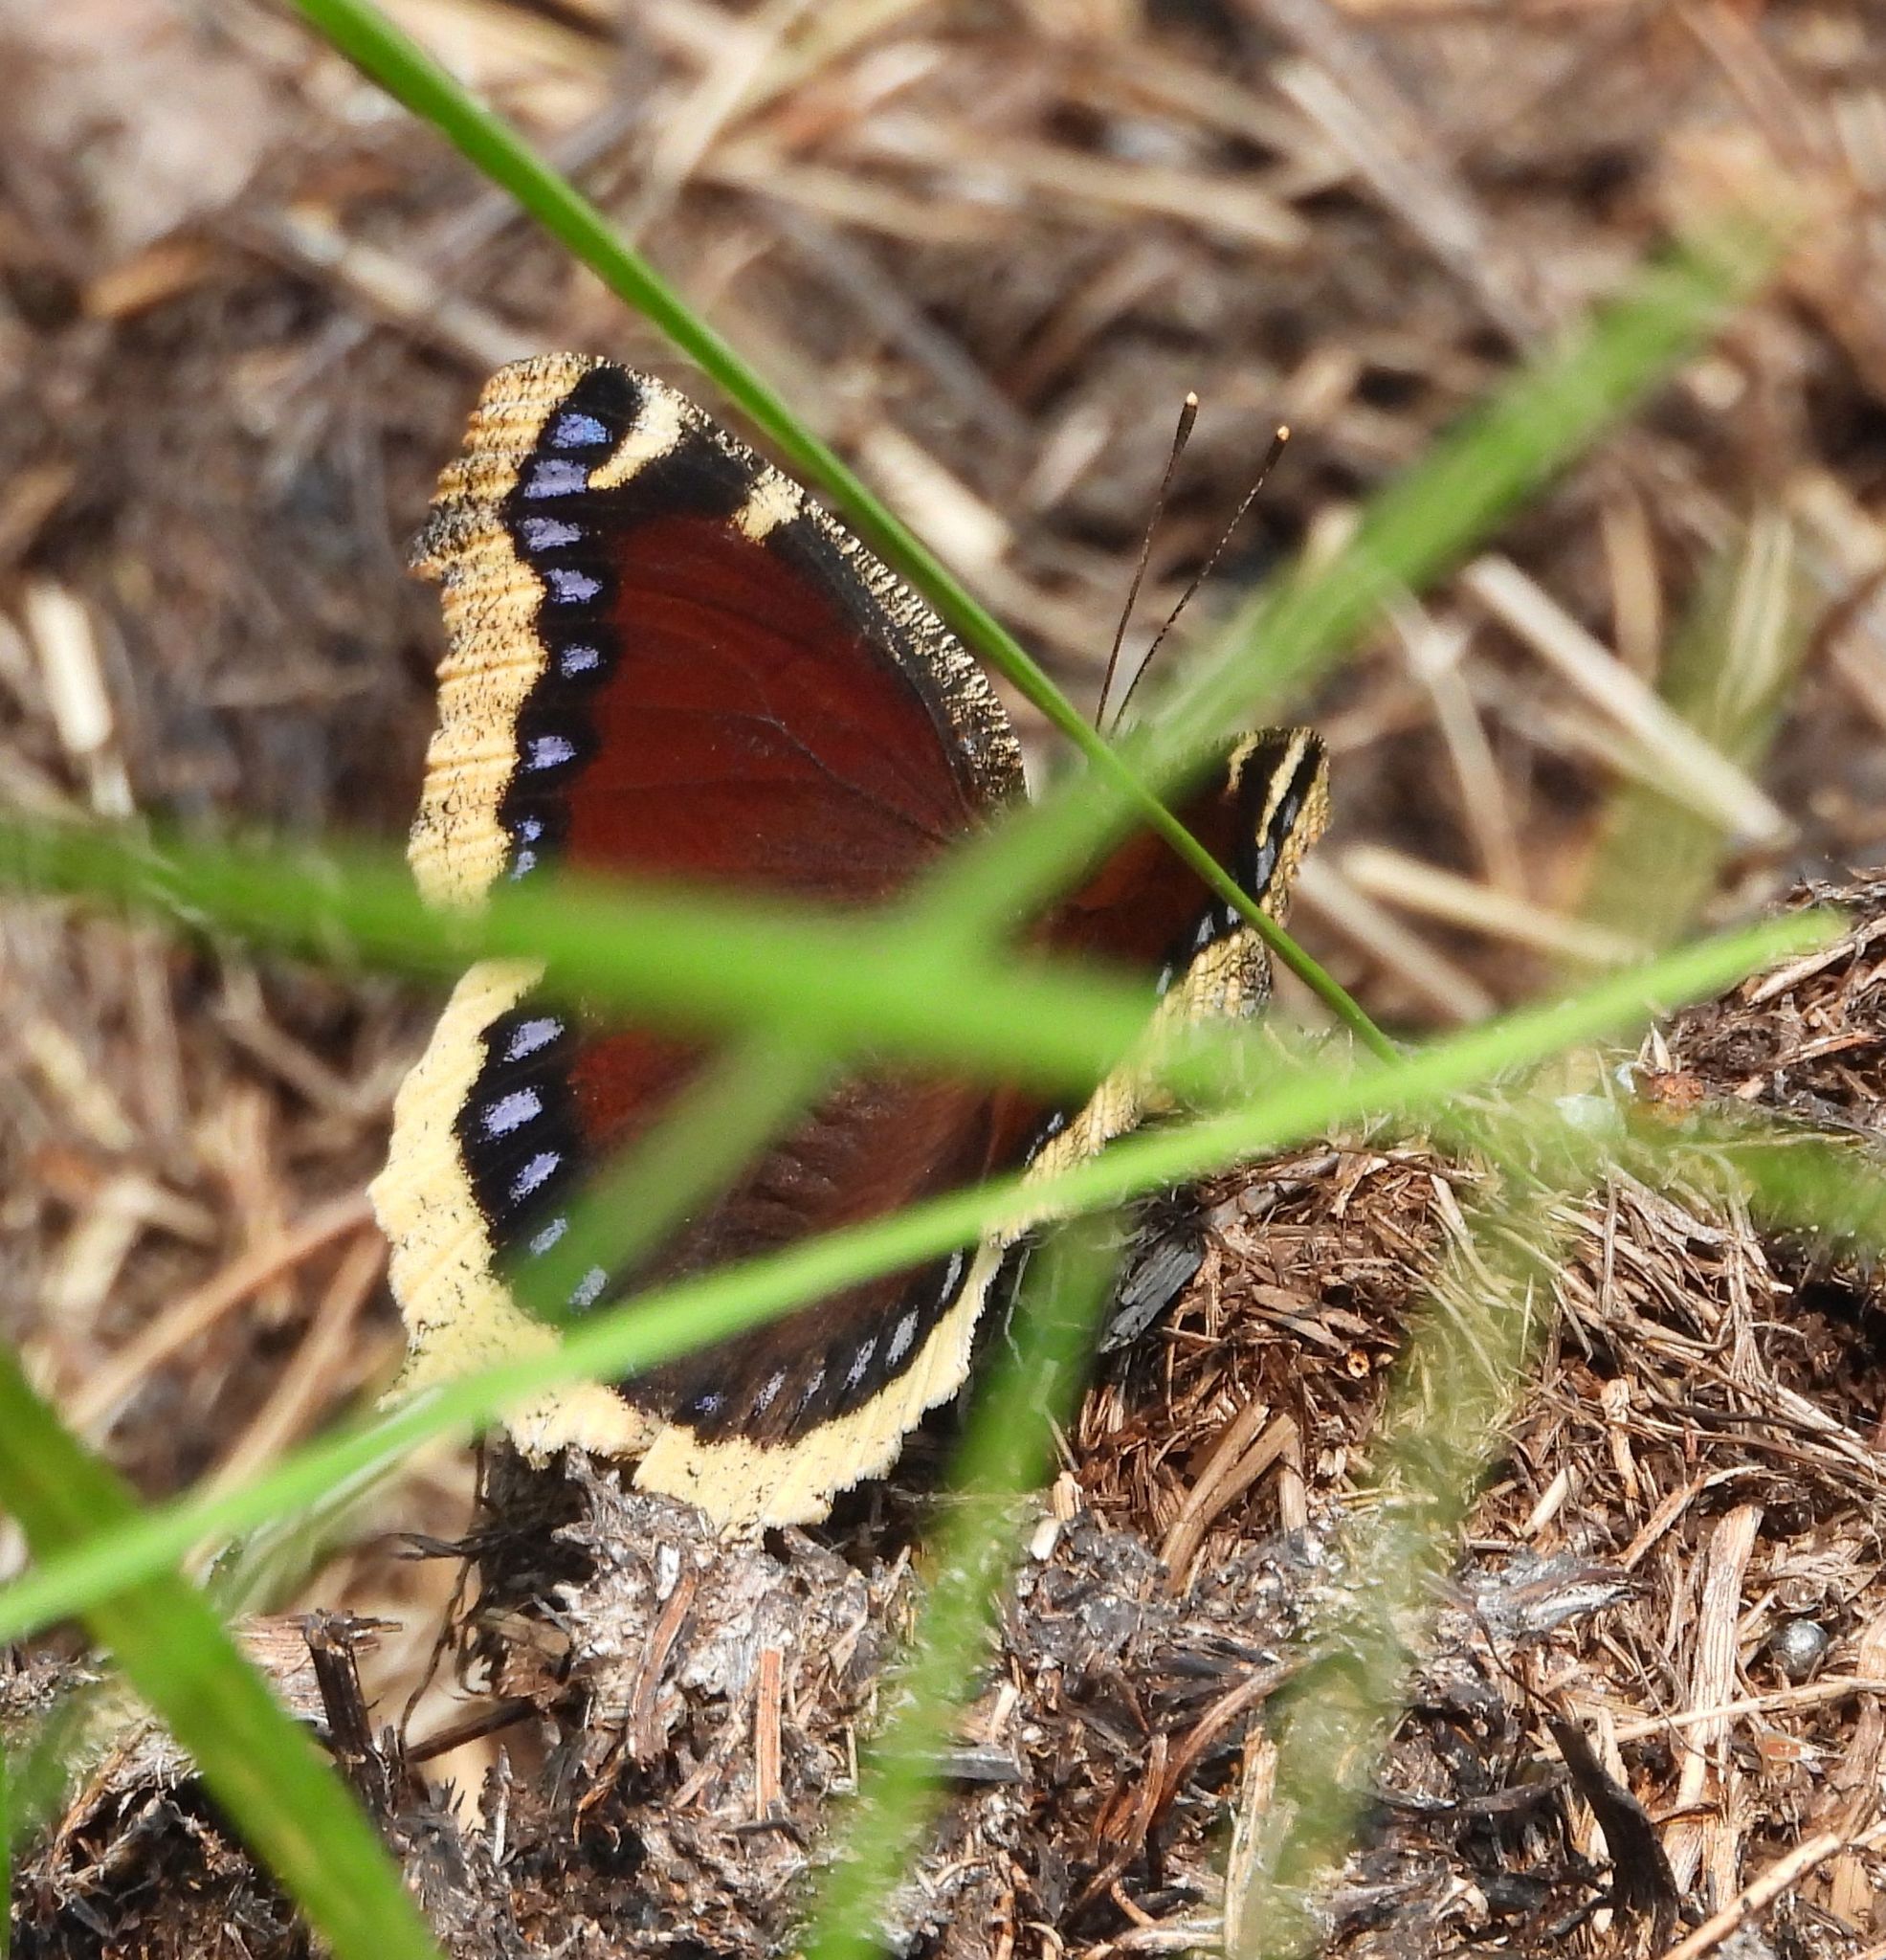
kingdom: Animalia
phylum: Arthropoda
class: Insecta
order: Lepidoptera
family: Nymphalidae
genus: Nymphalis
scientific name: Nymphalis antiopa
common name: Camberwell beauty
